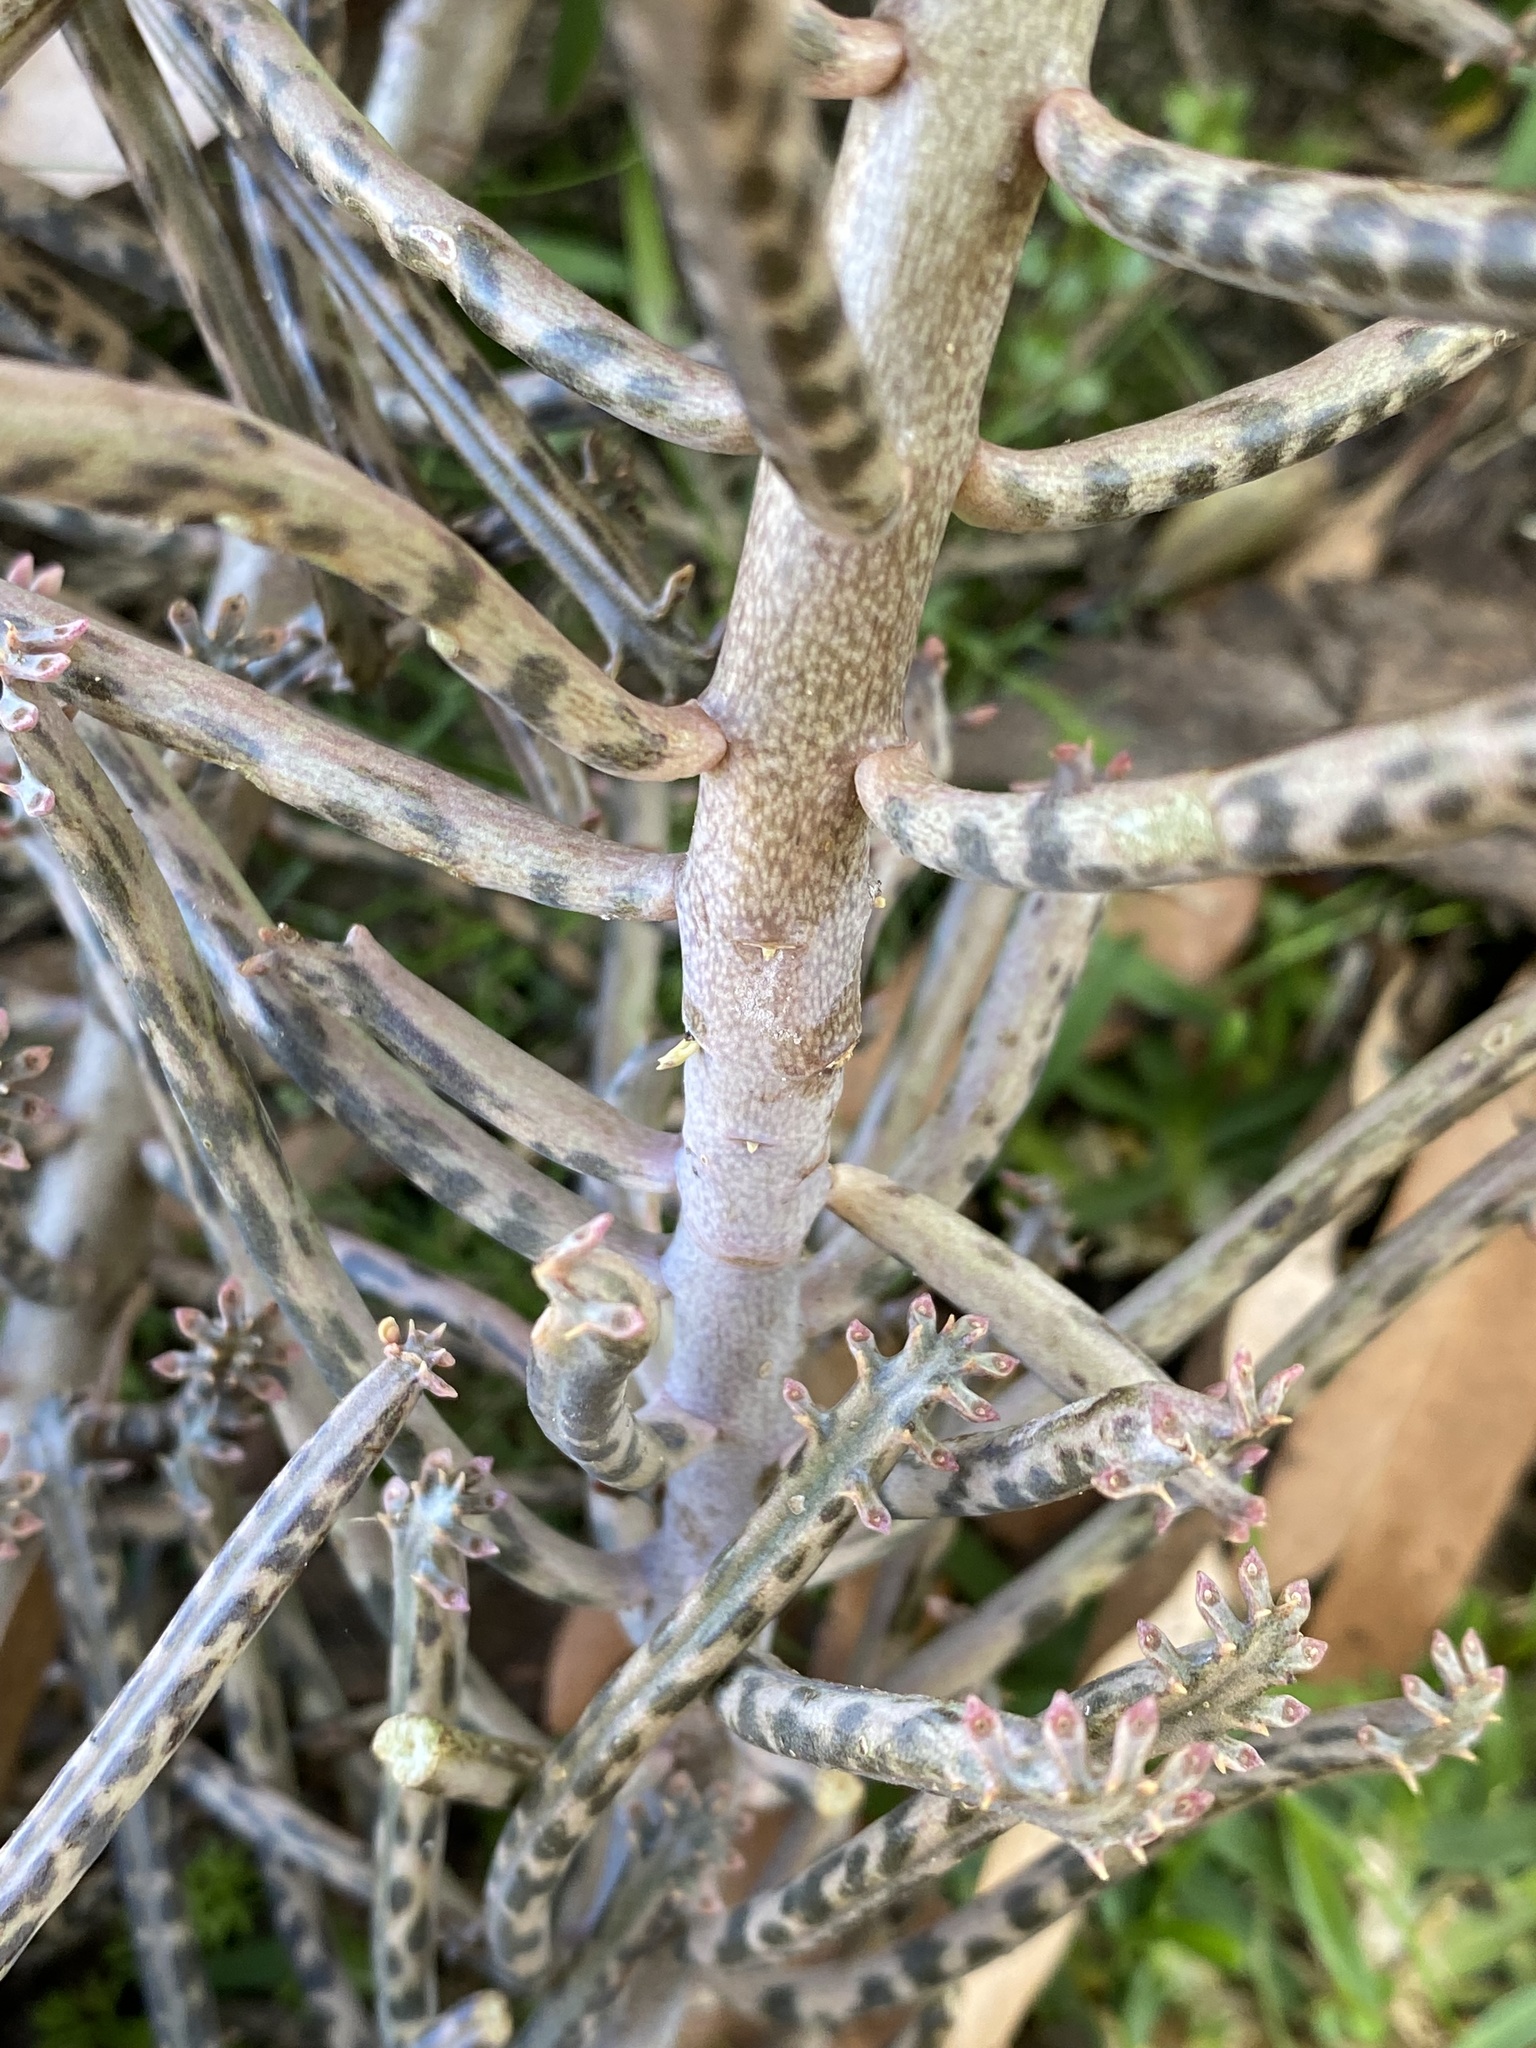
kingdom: Plantae
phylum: Tracheophyta
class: Magnoliopsida
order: Saxifragales
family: Crassulaceae
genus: Kalanchoe
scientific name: Kalanchoe delagoensis
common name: Chandelier plant
